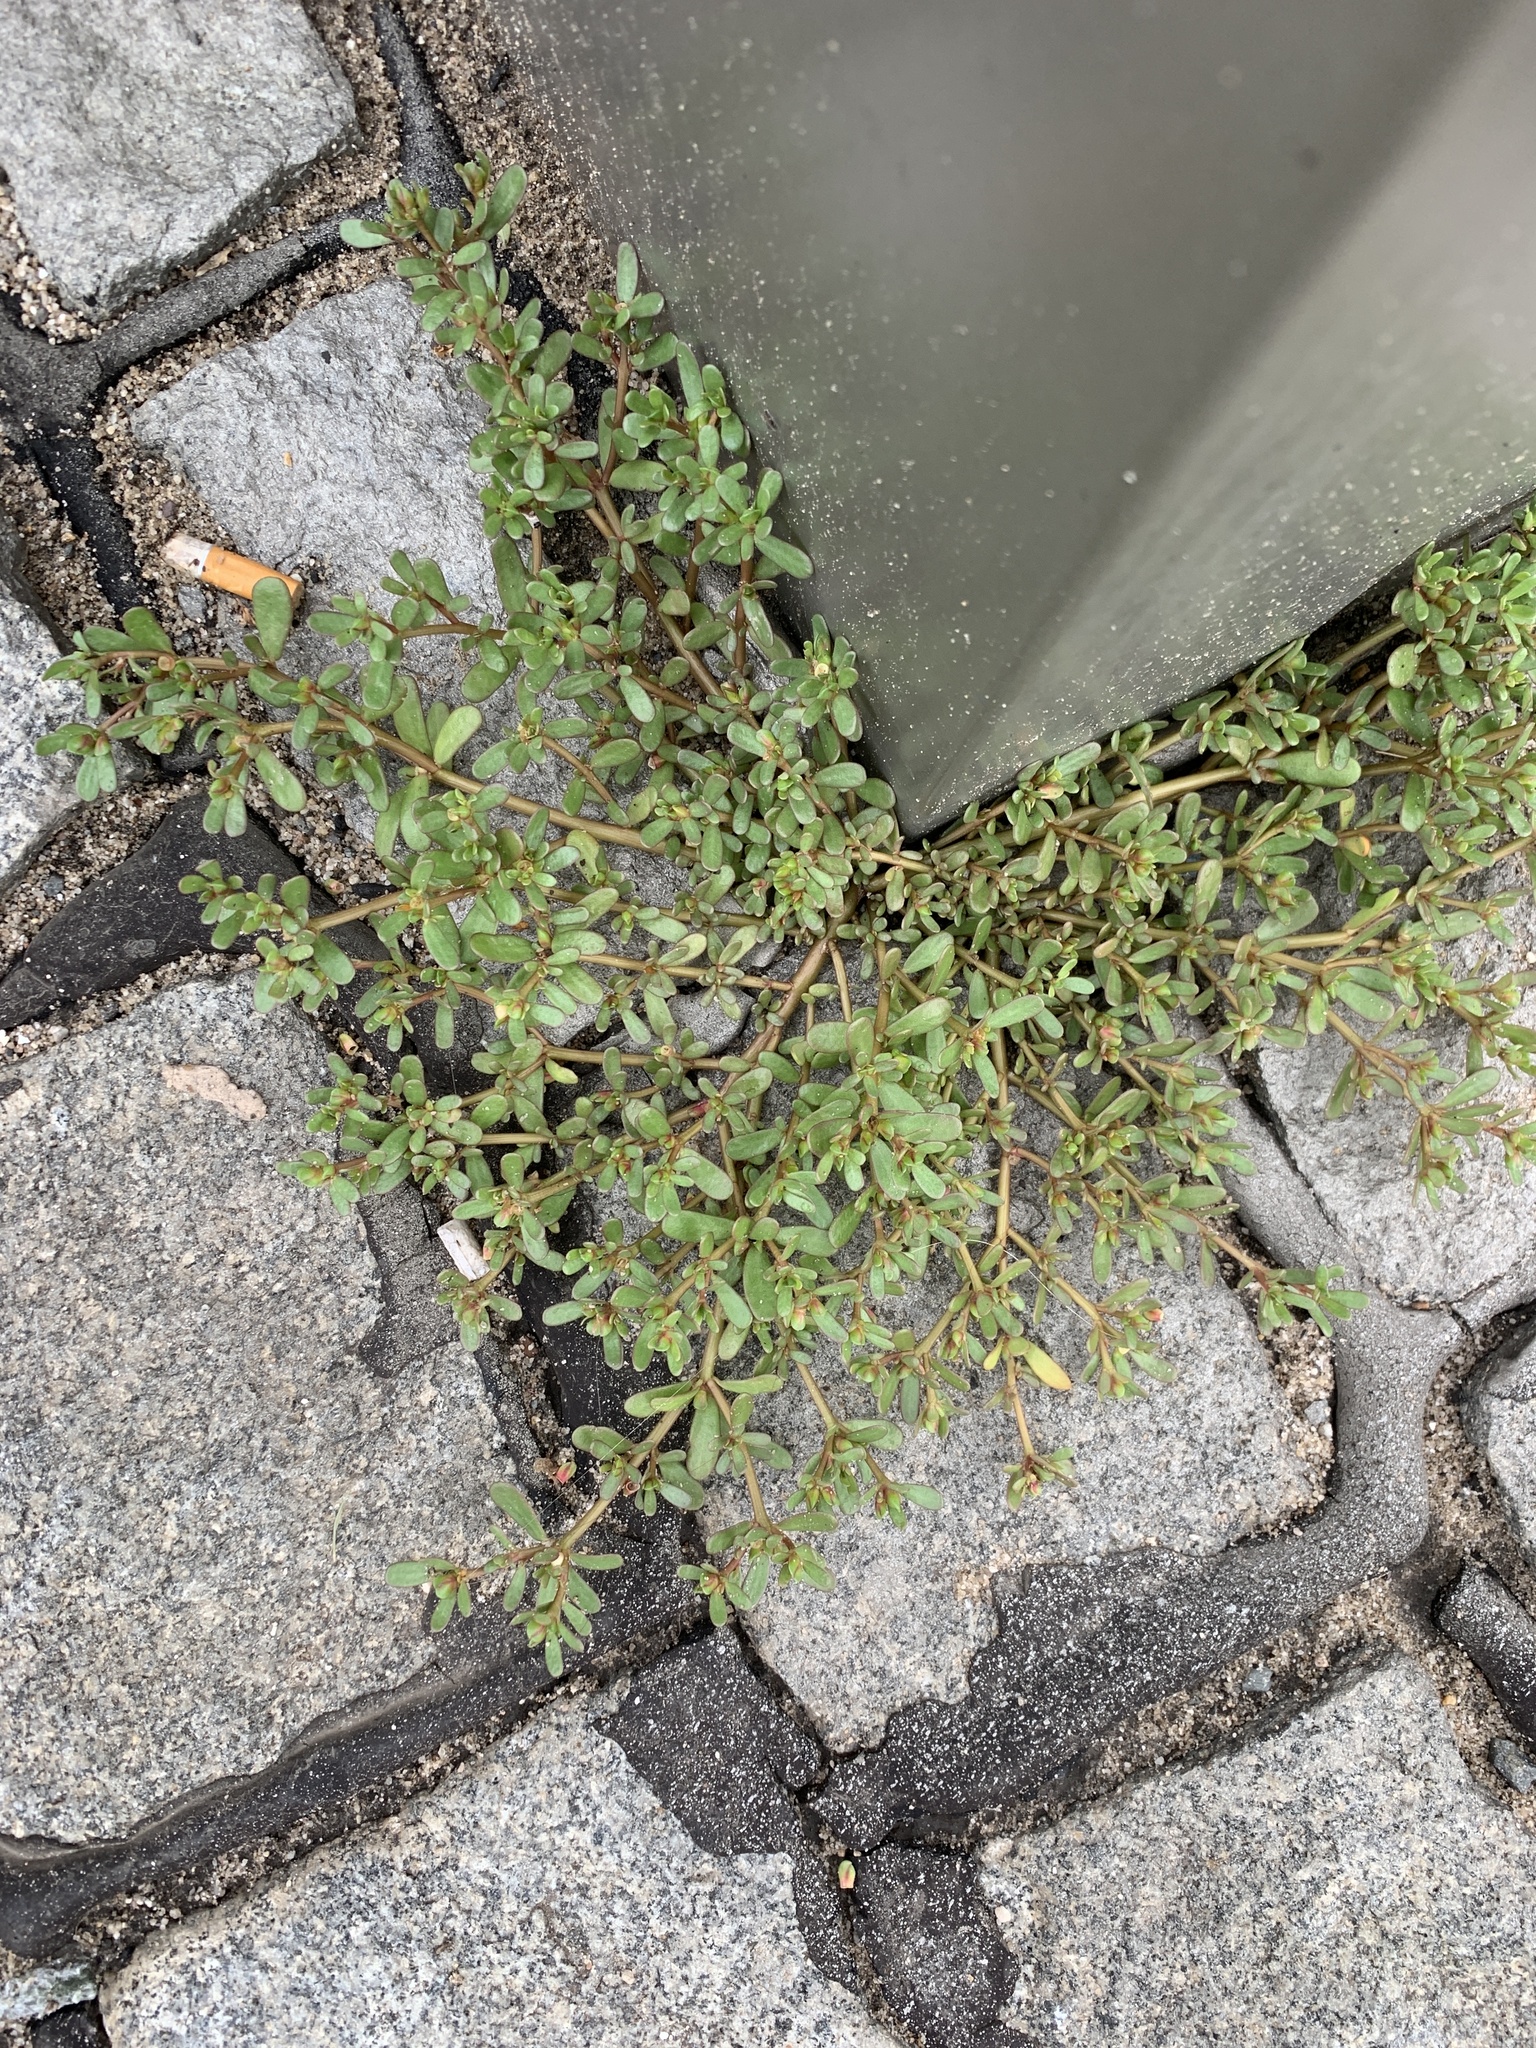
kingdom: Plantae
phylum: Tracheophyta
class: Magnoliopsida
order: Caryophyllales
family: Portulacaceae
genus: Portulaca
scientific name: Portulaca oleracea
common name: Common purslane
